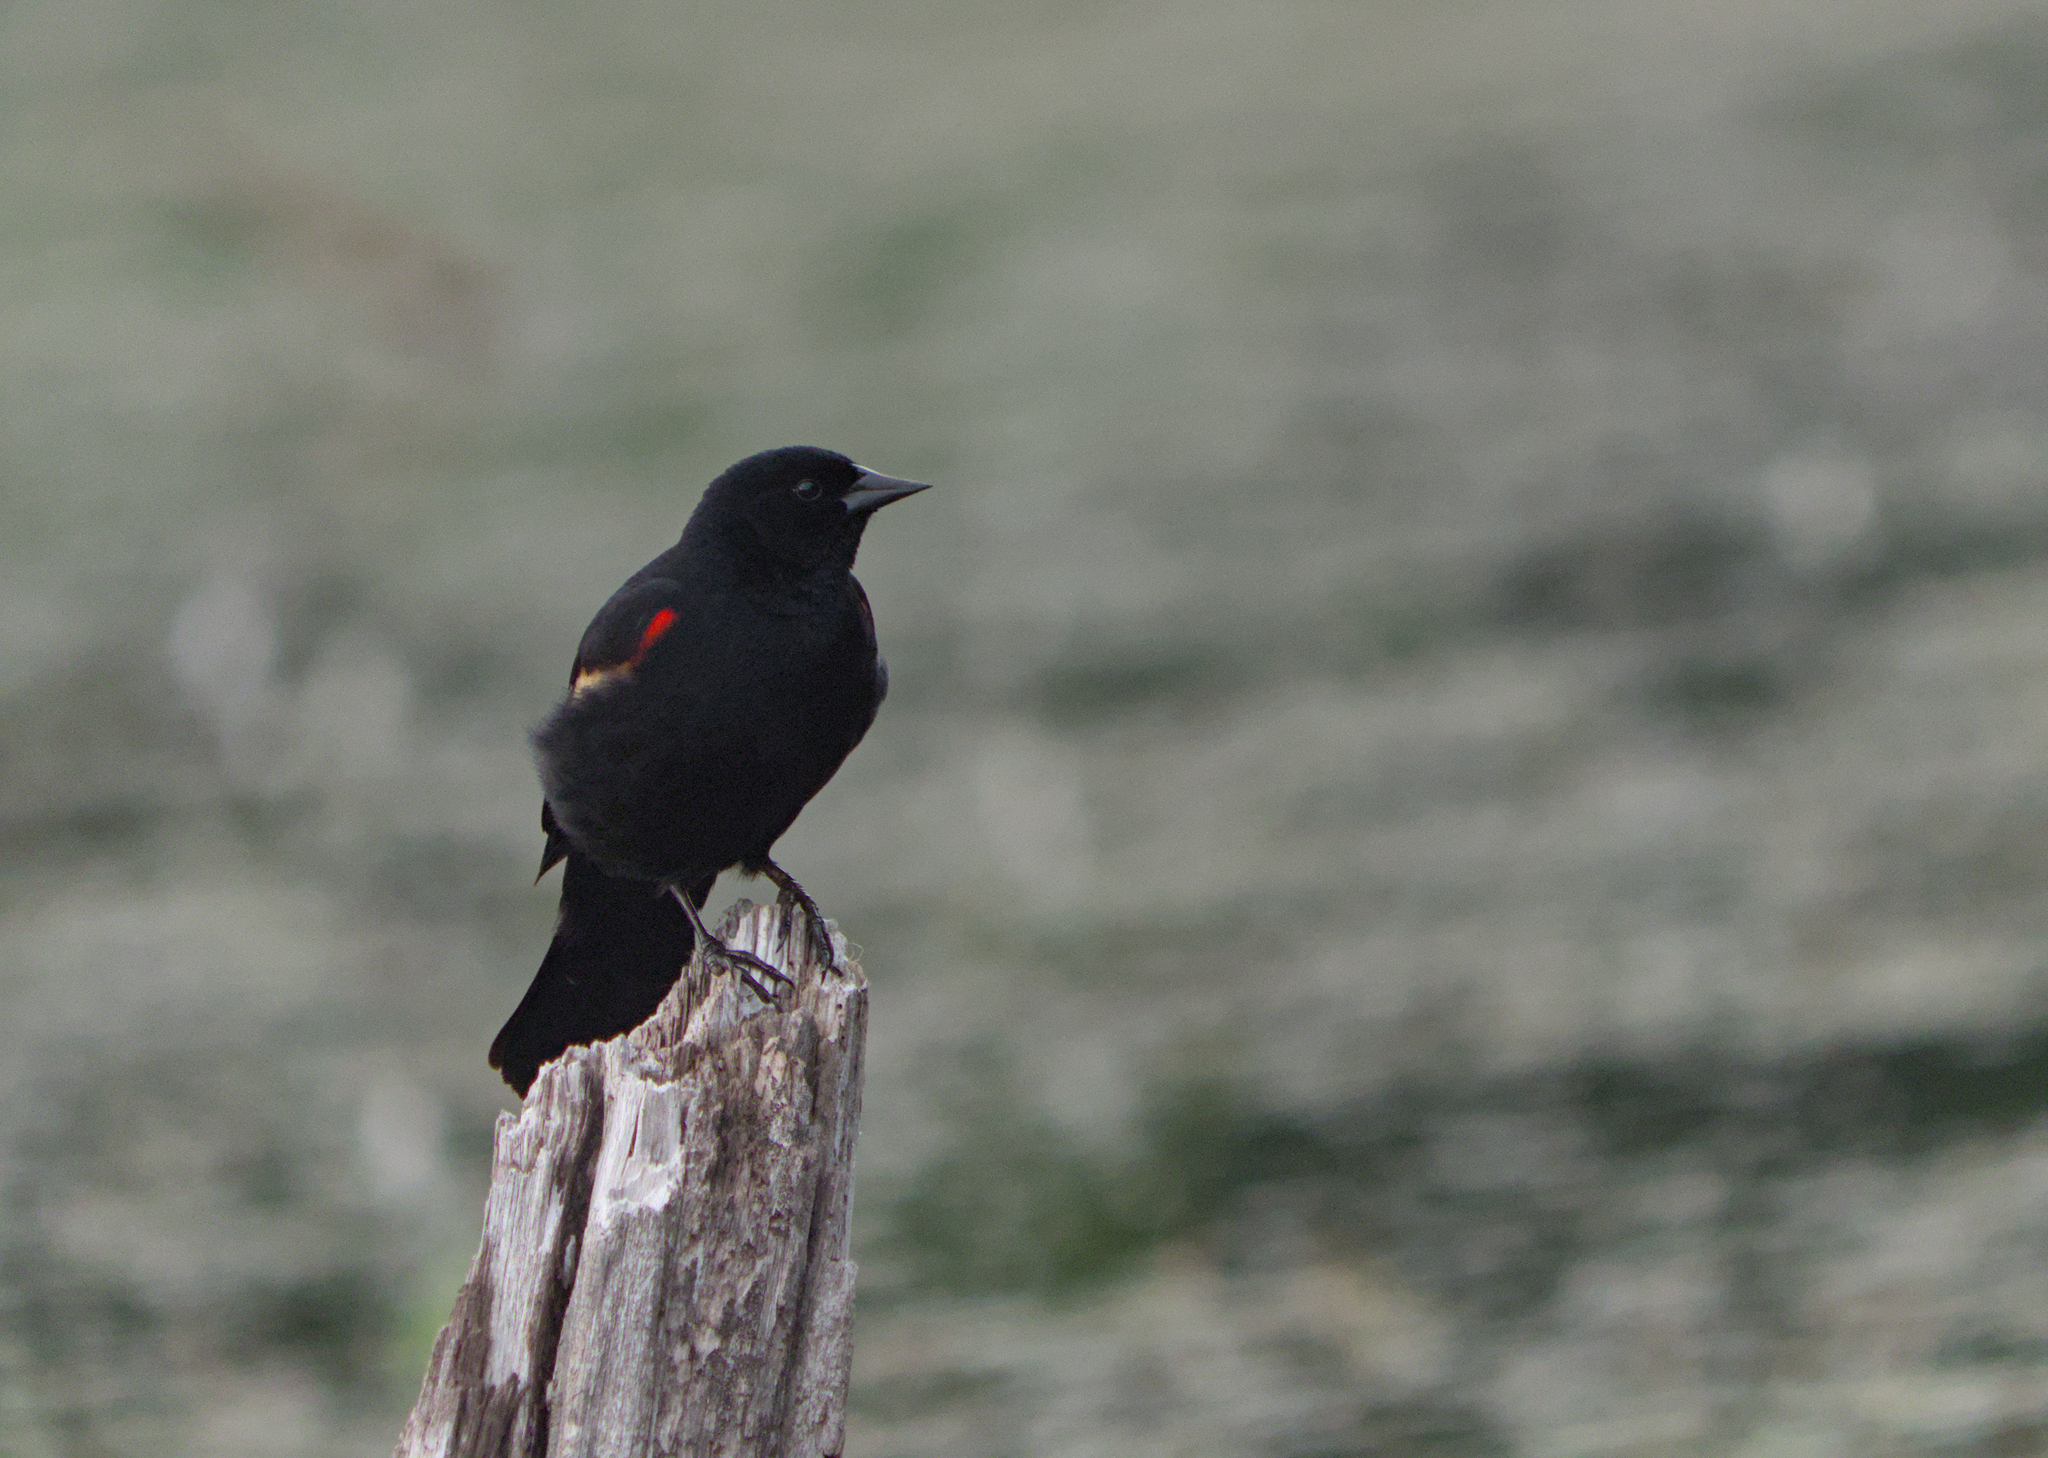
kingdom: Animalia
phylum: Chordata
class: Aves
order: Passeriformes
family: Icteridae
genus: Agelaius
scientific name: Agelaius phoeniceus
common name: Red-winged blackbird
